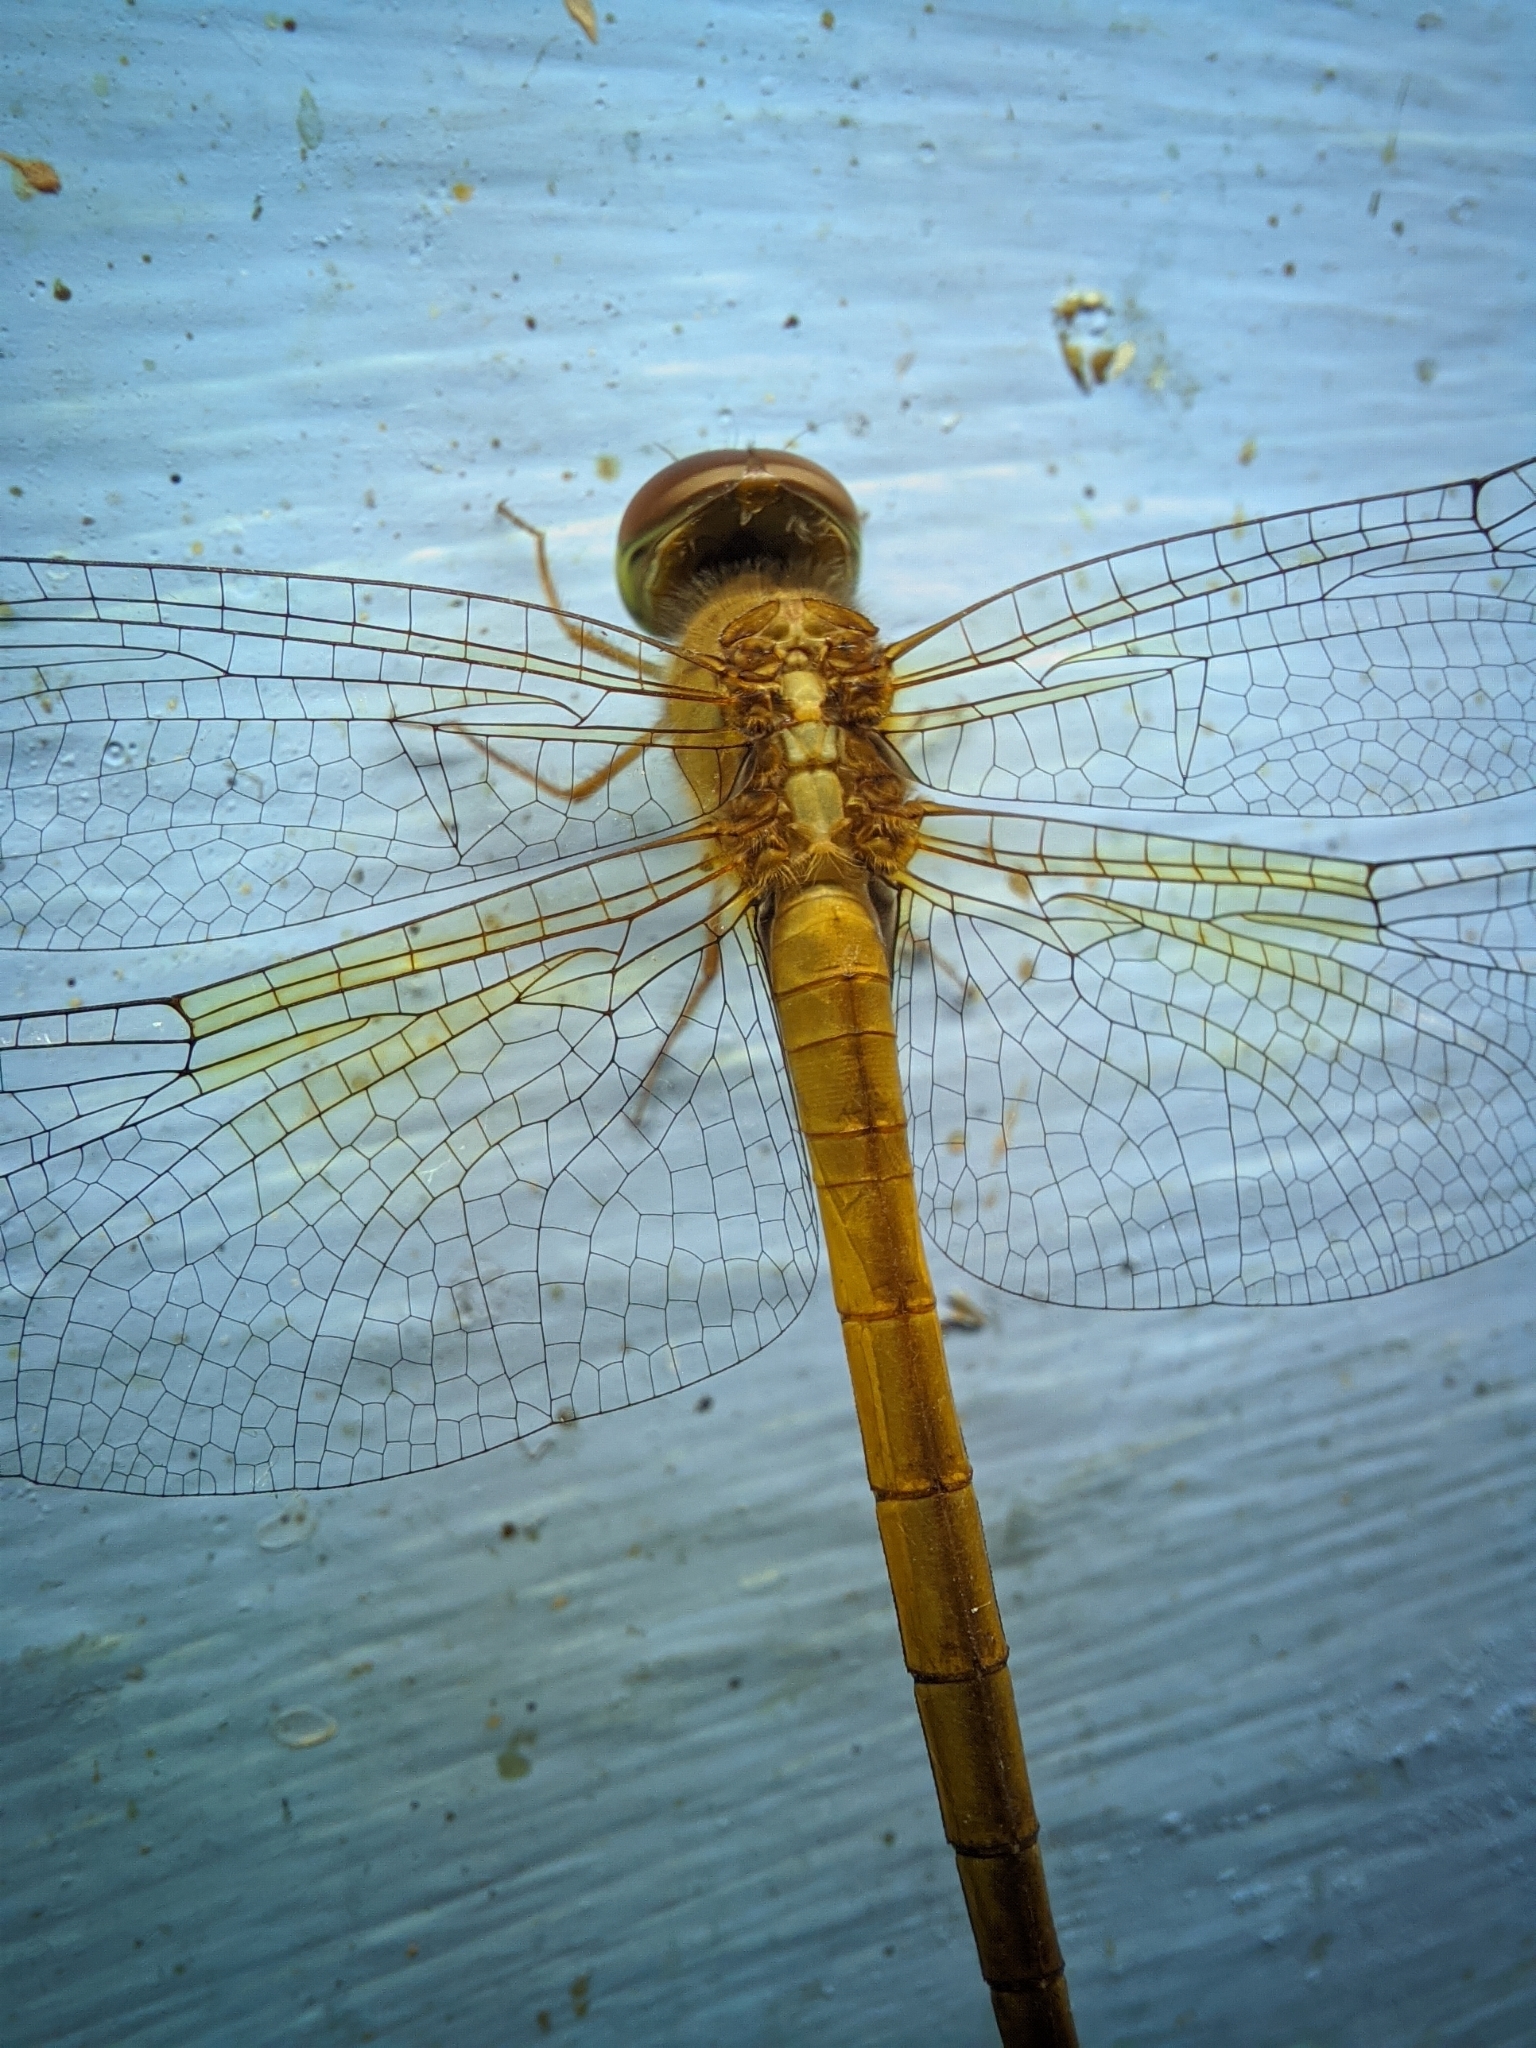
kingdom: Animalia
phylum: Arthropoda
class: Insecta
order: Odonata
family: Libellulidae
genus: Tholymis
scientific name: Tholymis tillarga
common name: Coral-tailed cloud wing
